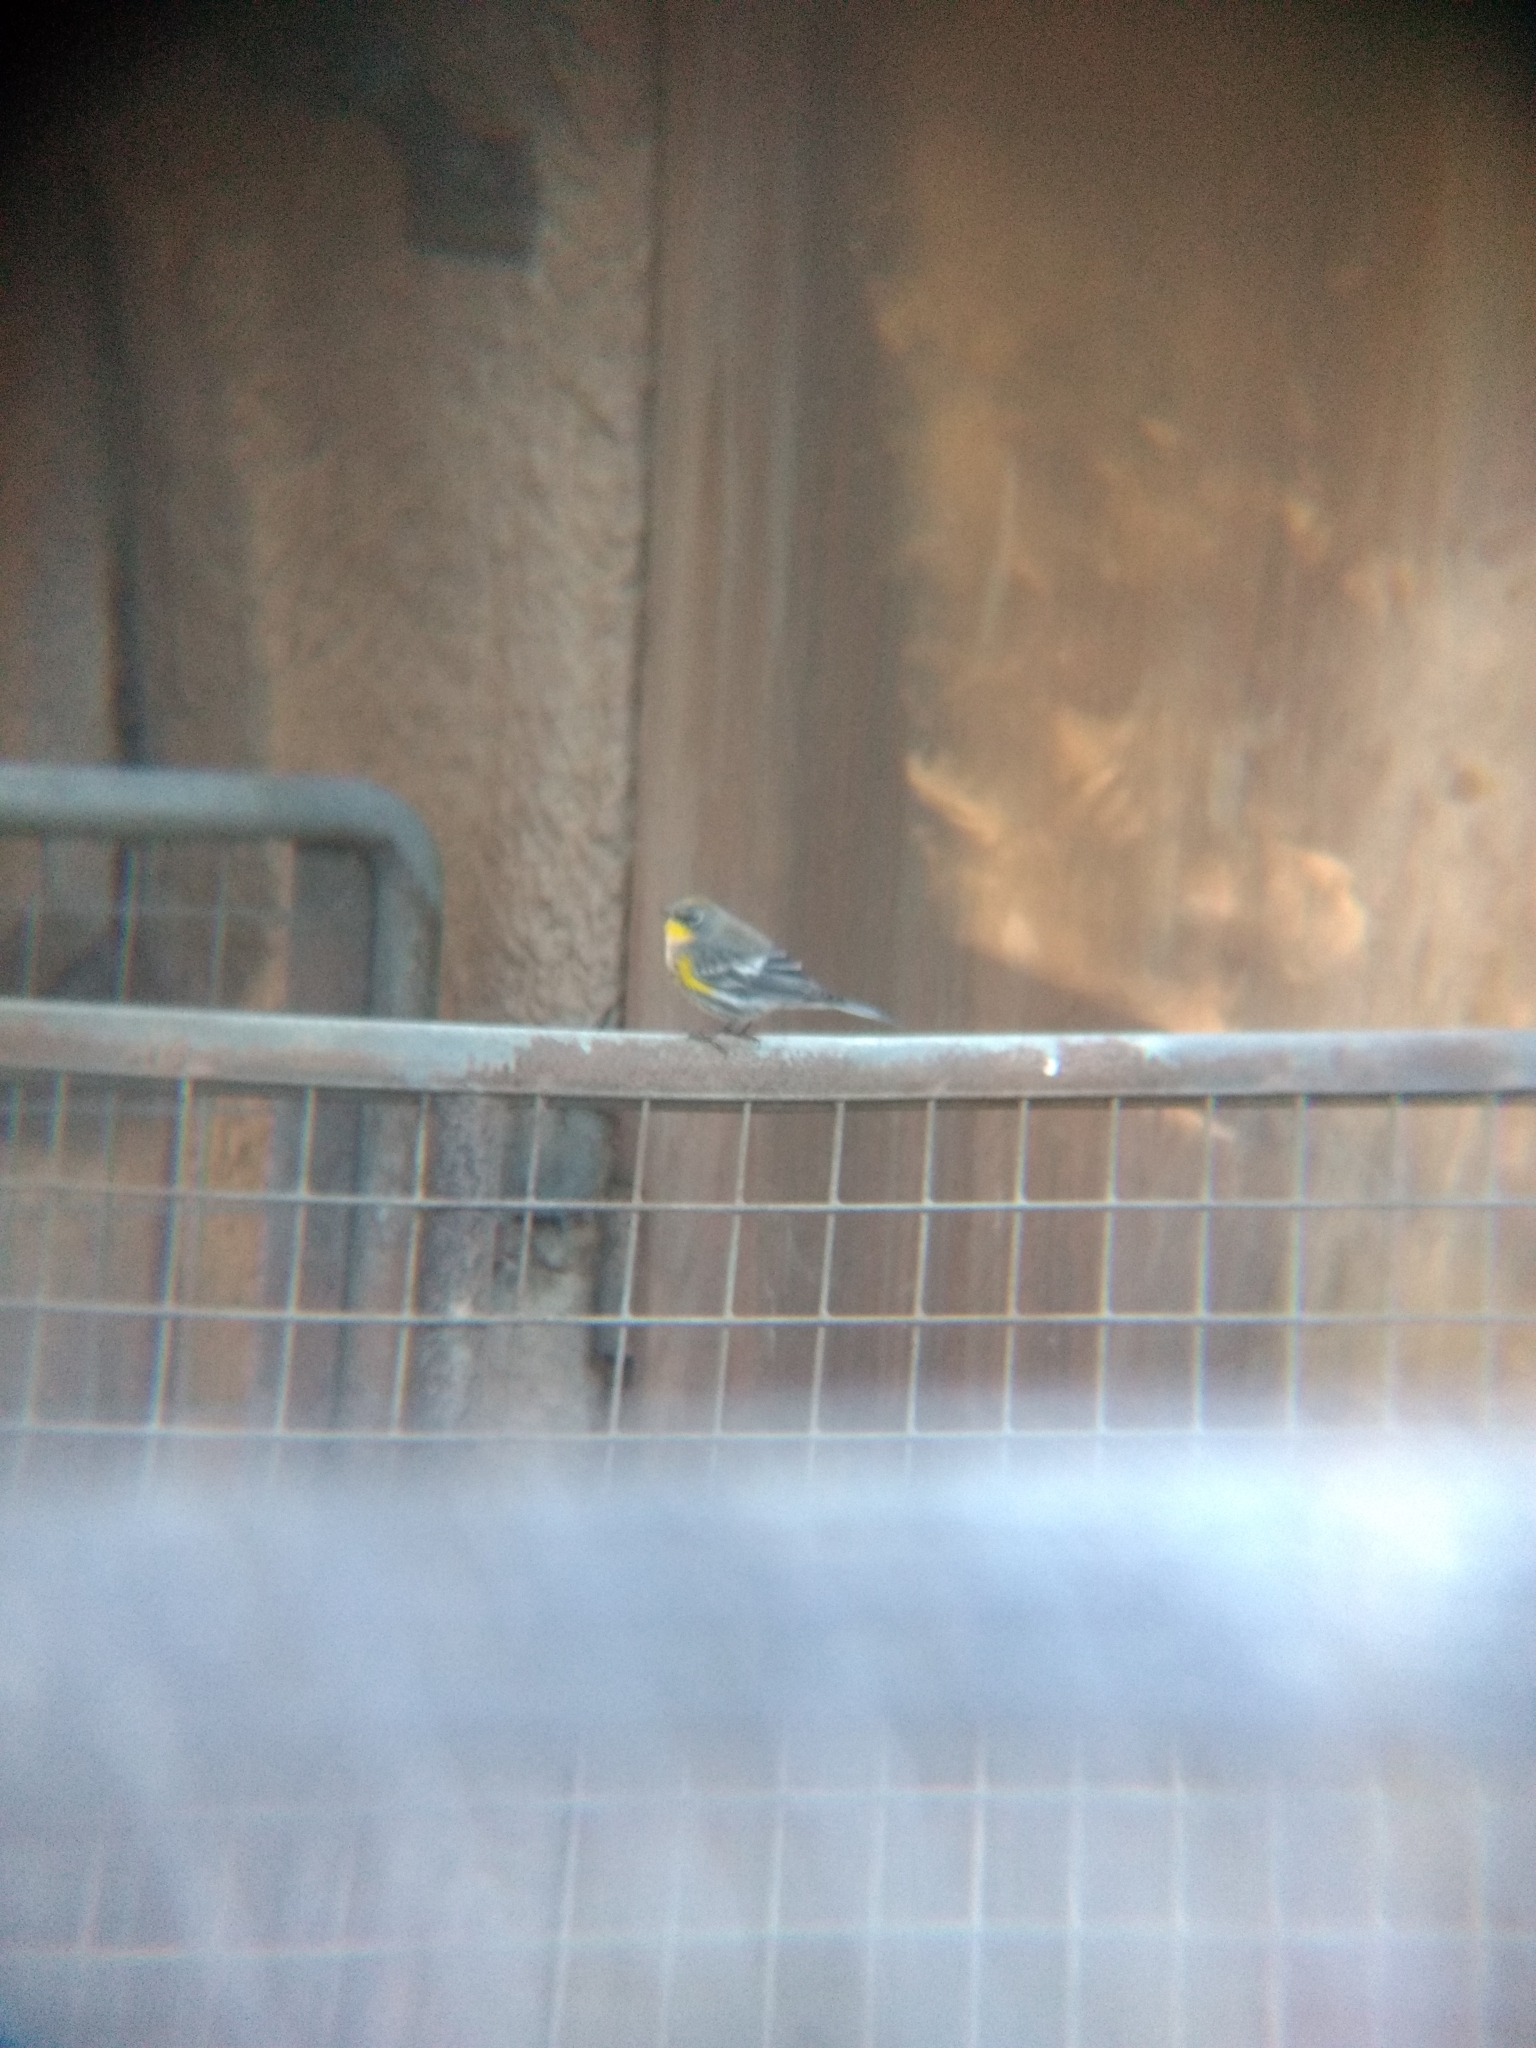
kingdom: Animalia
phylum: Chordata
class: Aves
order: Passeriformes
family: Parulidae
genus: Setophaga
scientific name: Setophaga coronata
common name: Myrtle warbler
